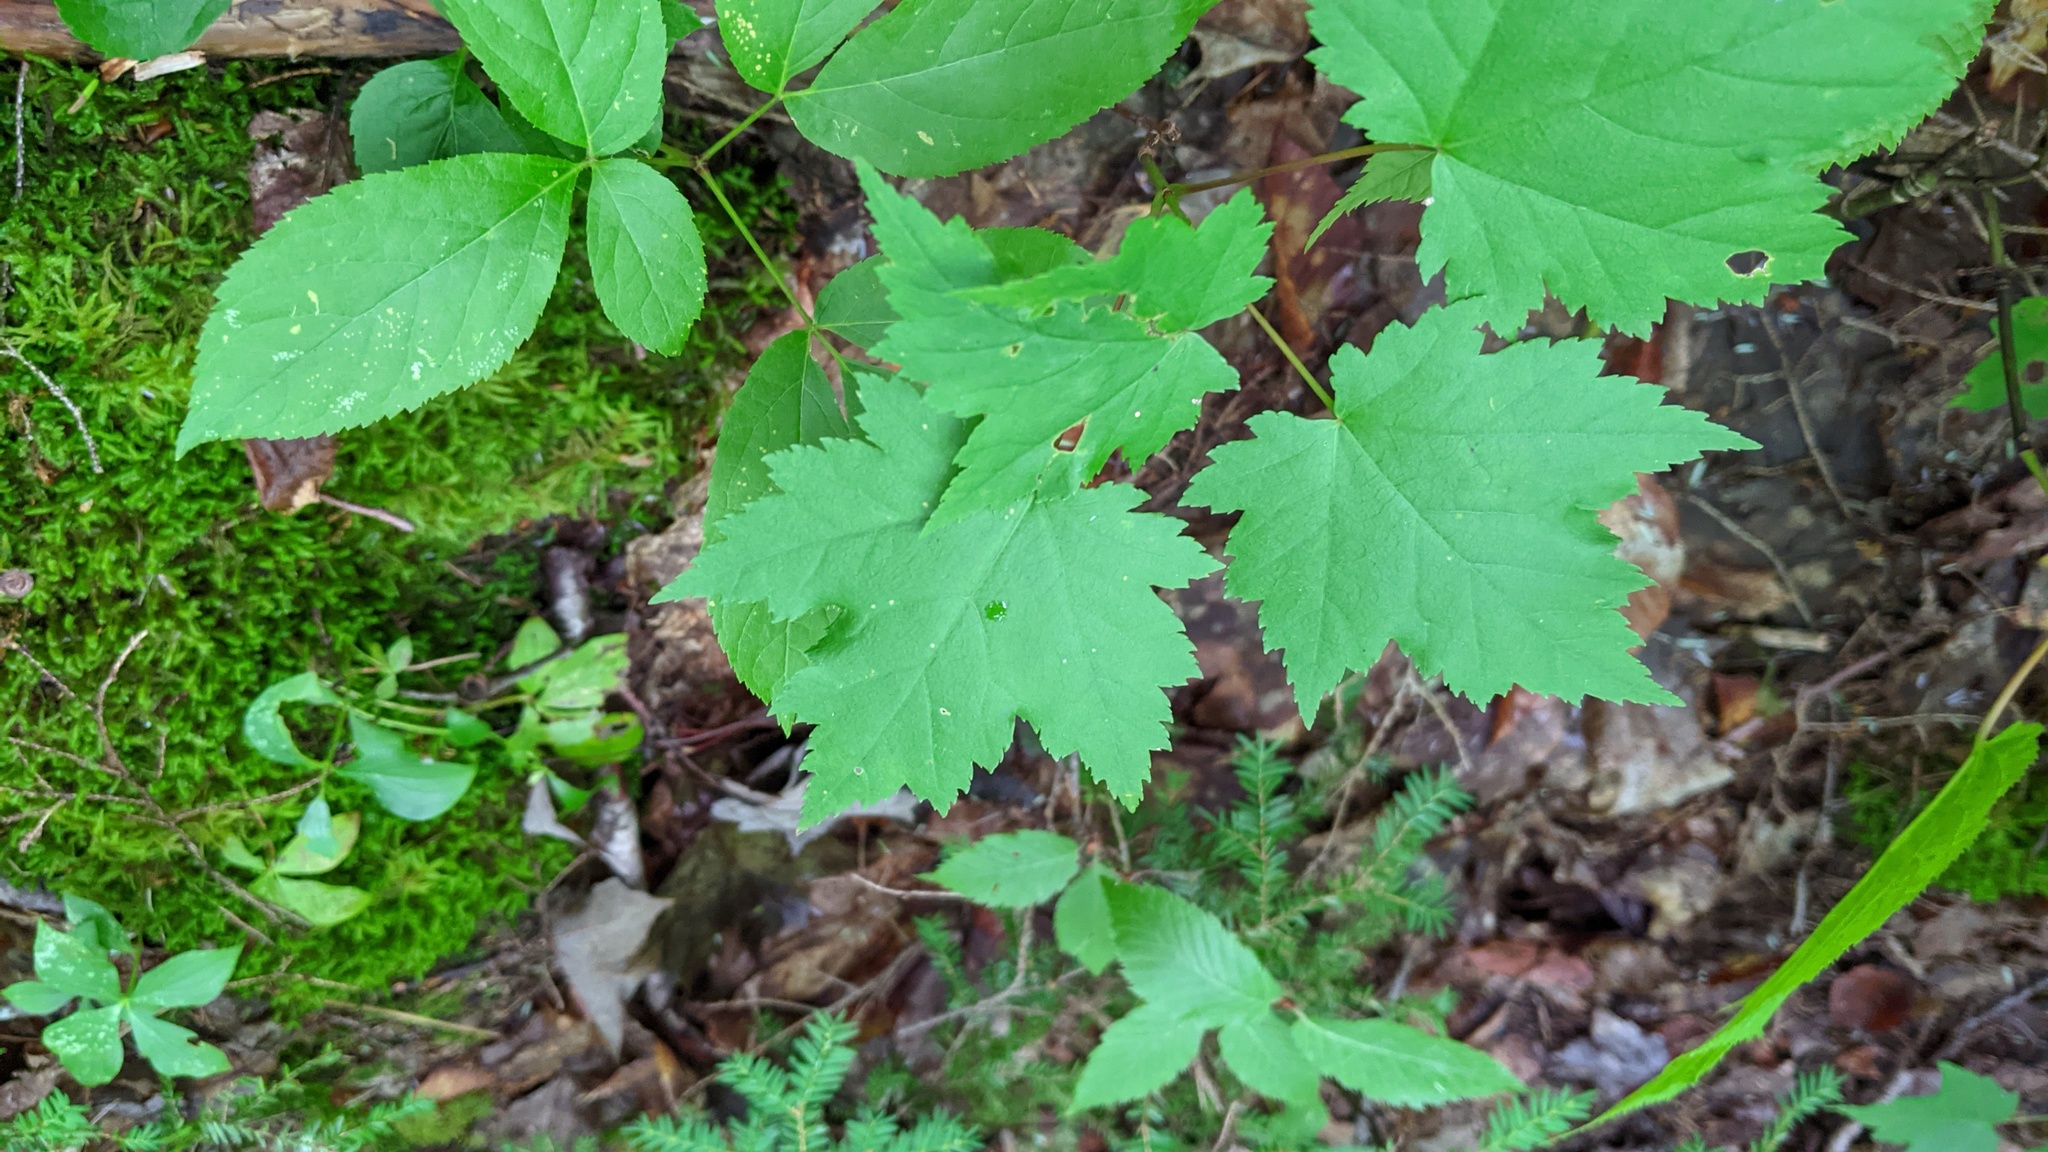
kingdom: Plantae
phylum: Tracheophyta
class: Magnoliopsida
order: Sapindales
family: Sapindaceae
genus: Acer
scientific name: Acer rubrum
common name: Red maple
